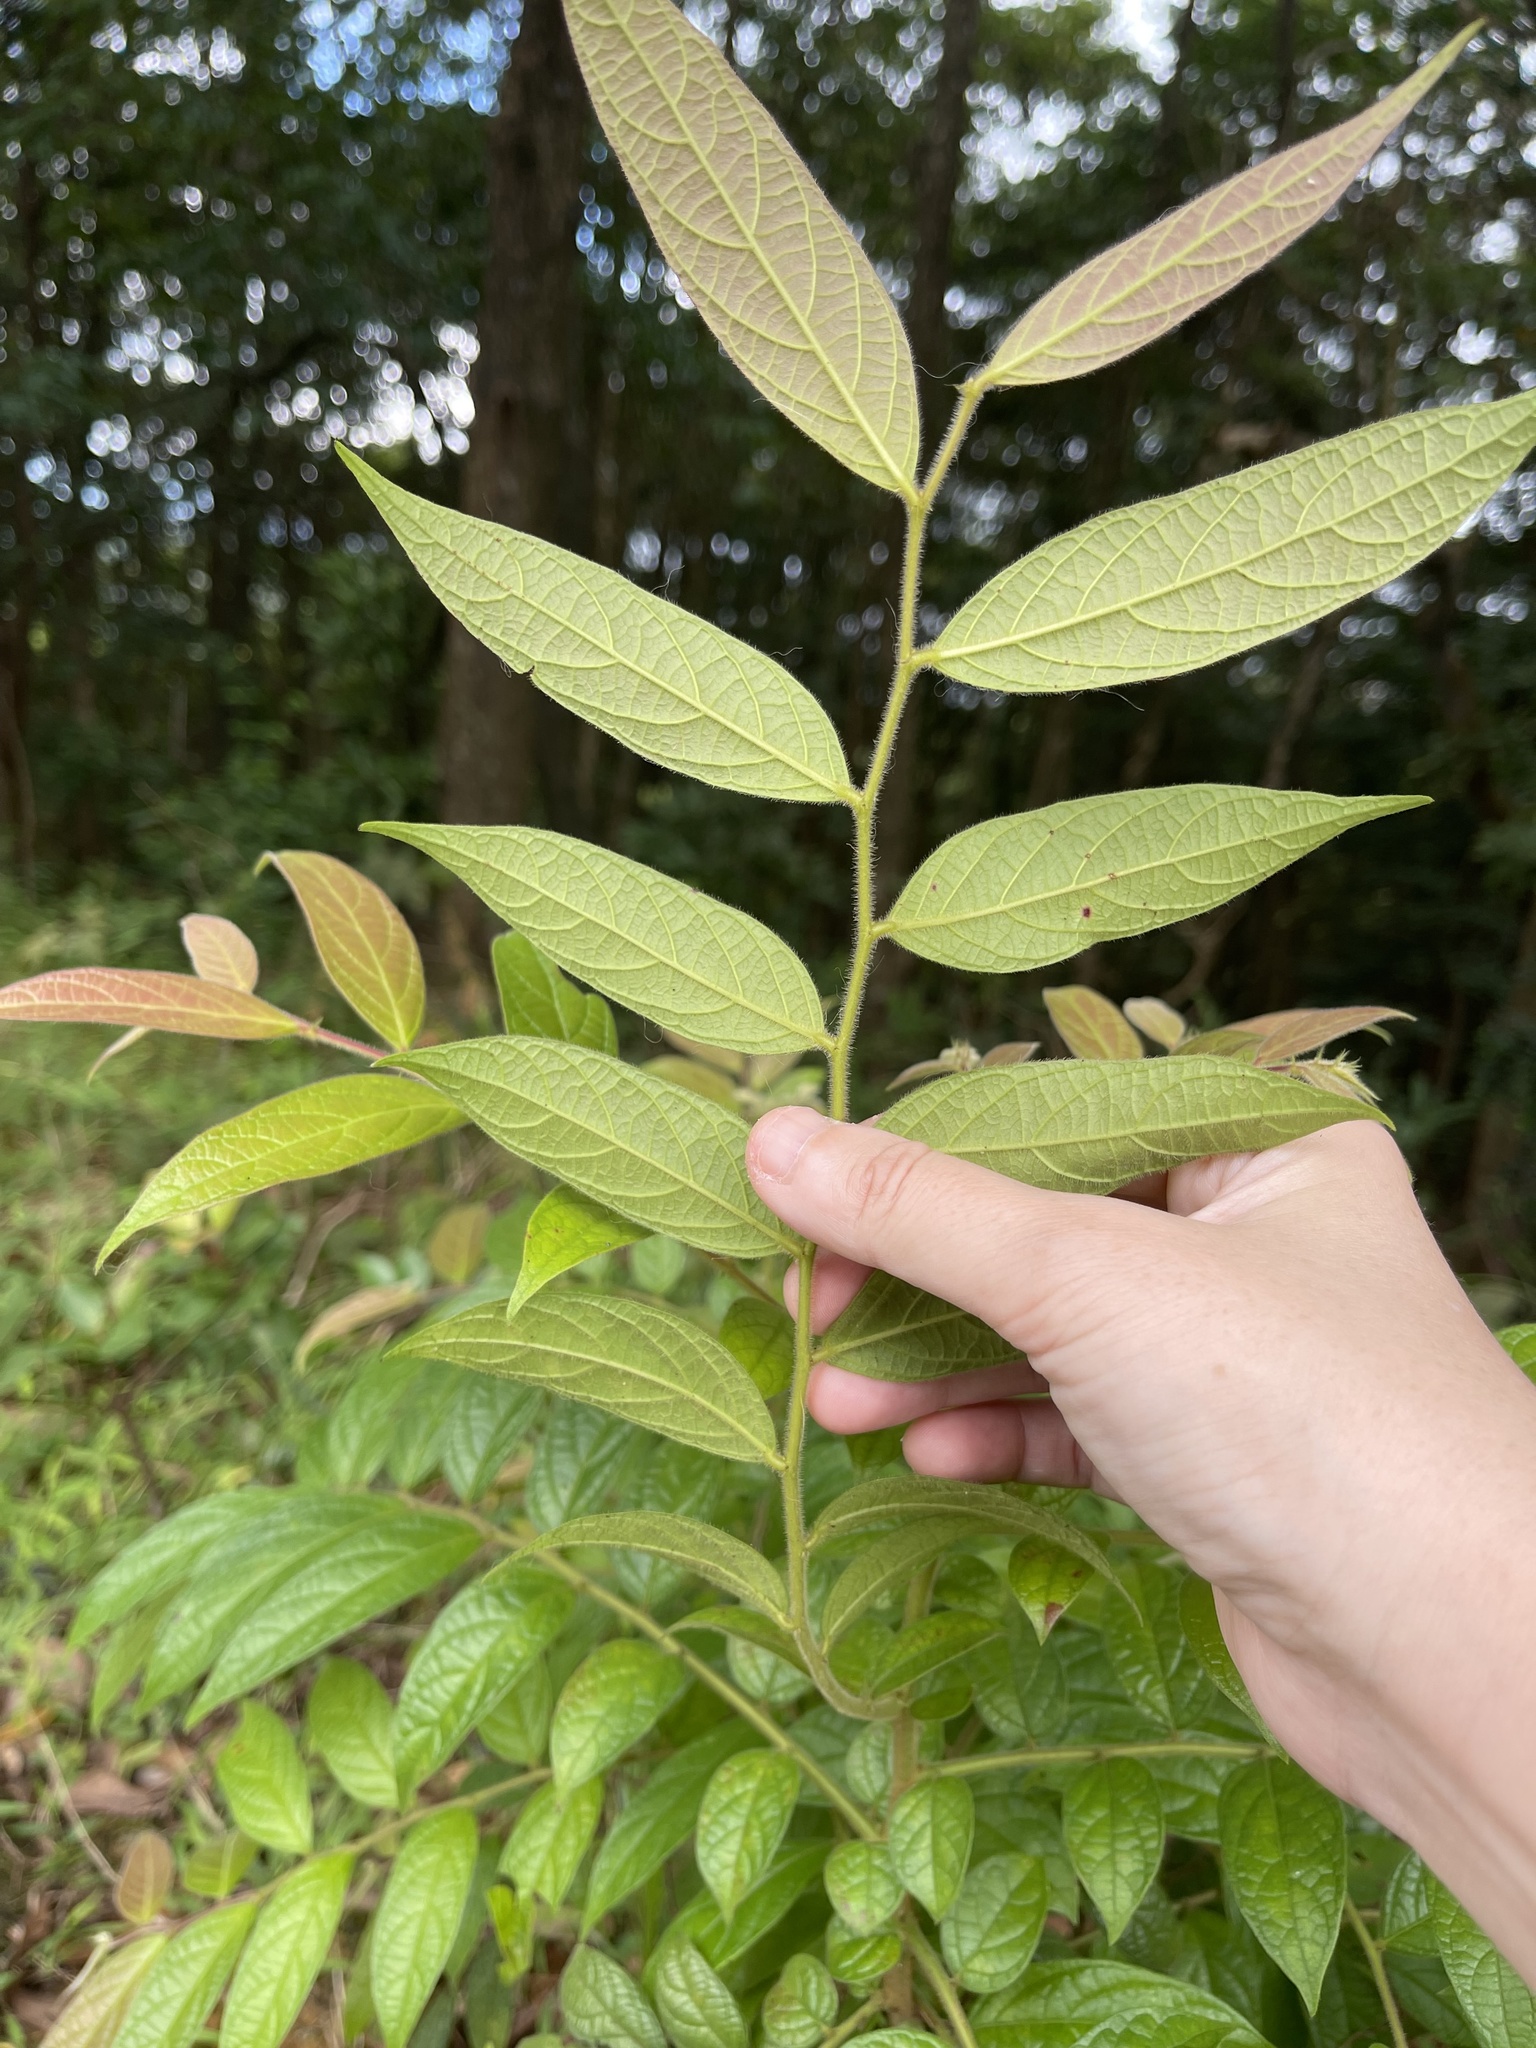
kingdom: Plantae
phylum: Tracheophyta
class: Magnoliopsida
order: Malpighiales
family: Phyllanthaceae
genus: Glochidion
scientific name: Glochidion eriocarpum
